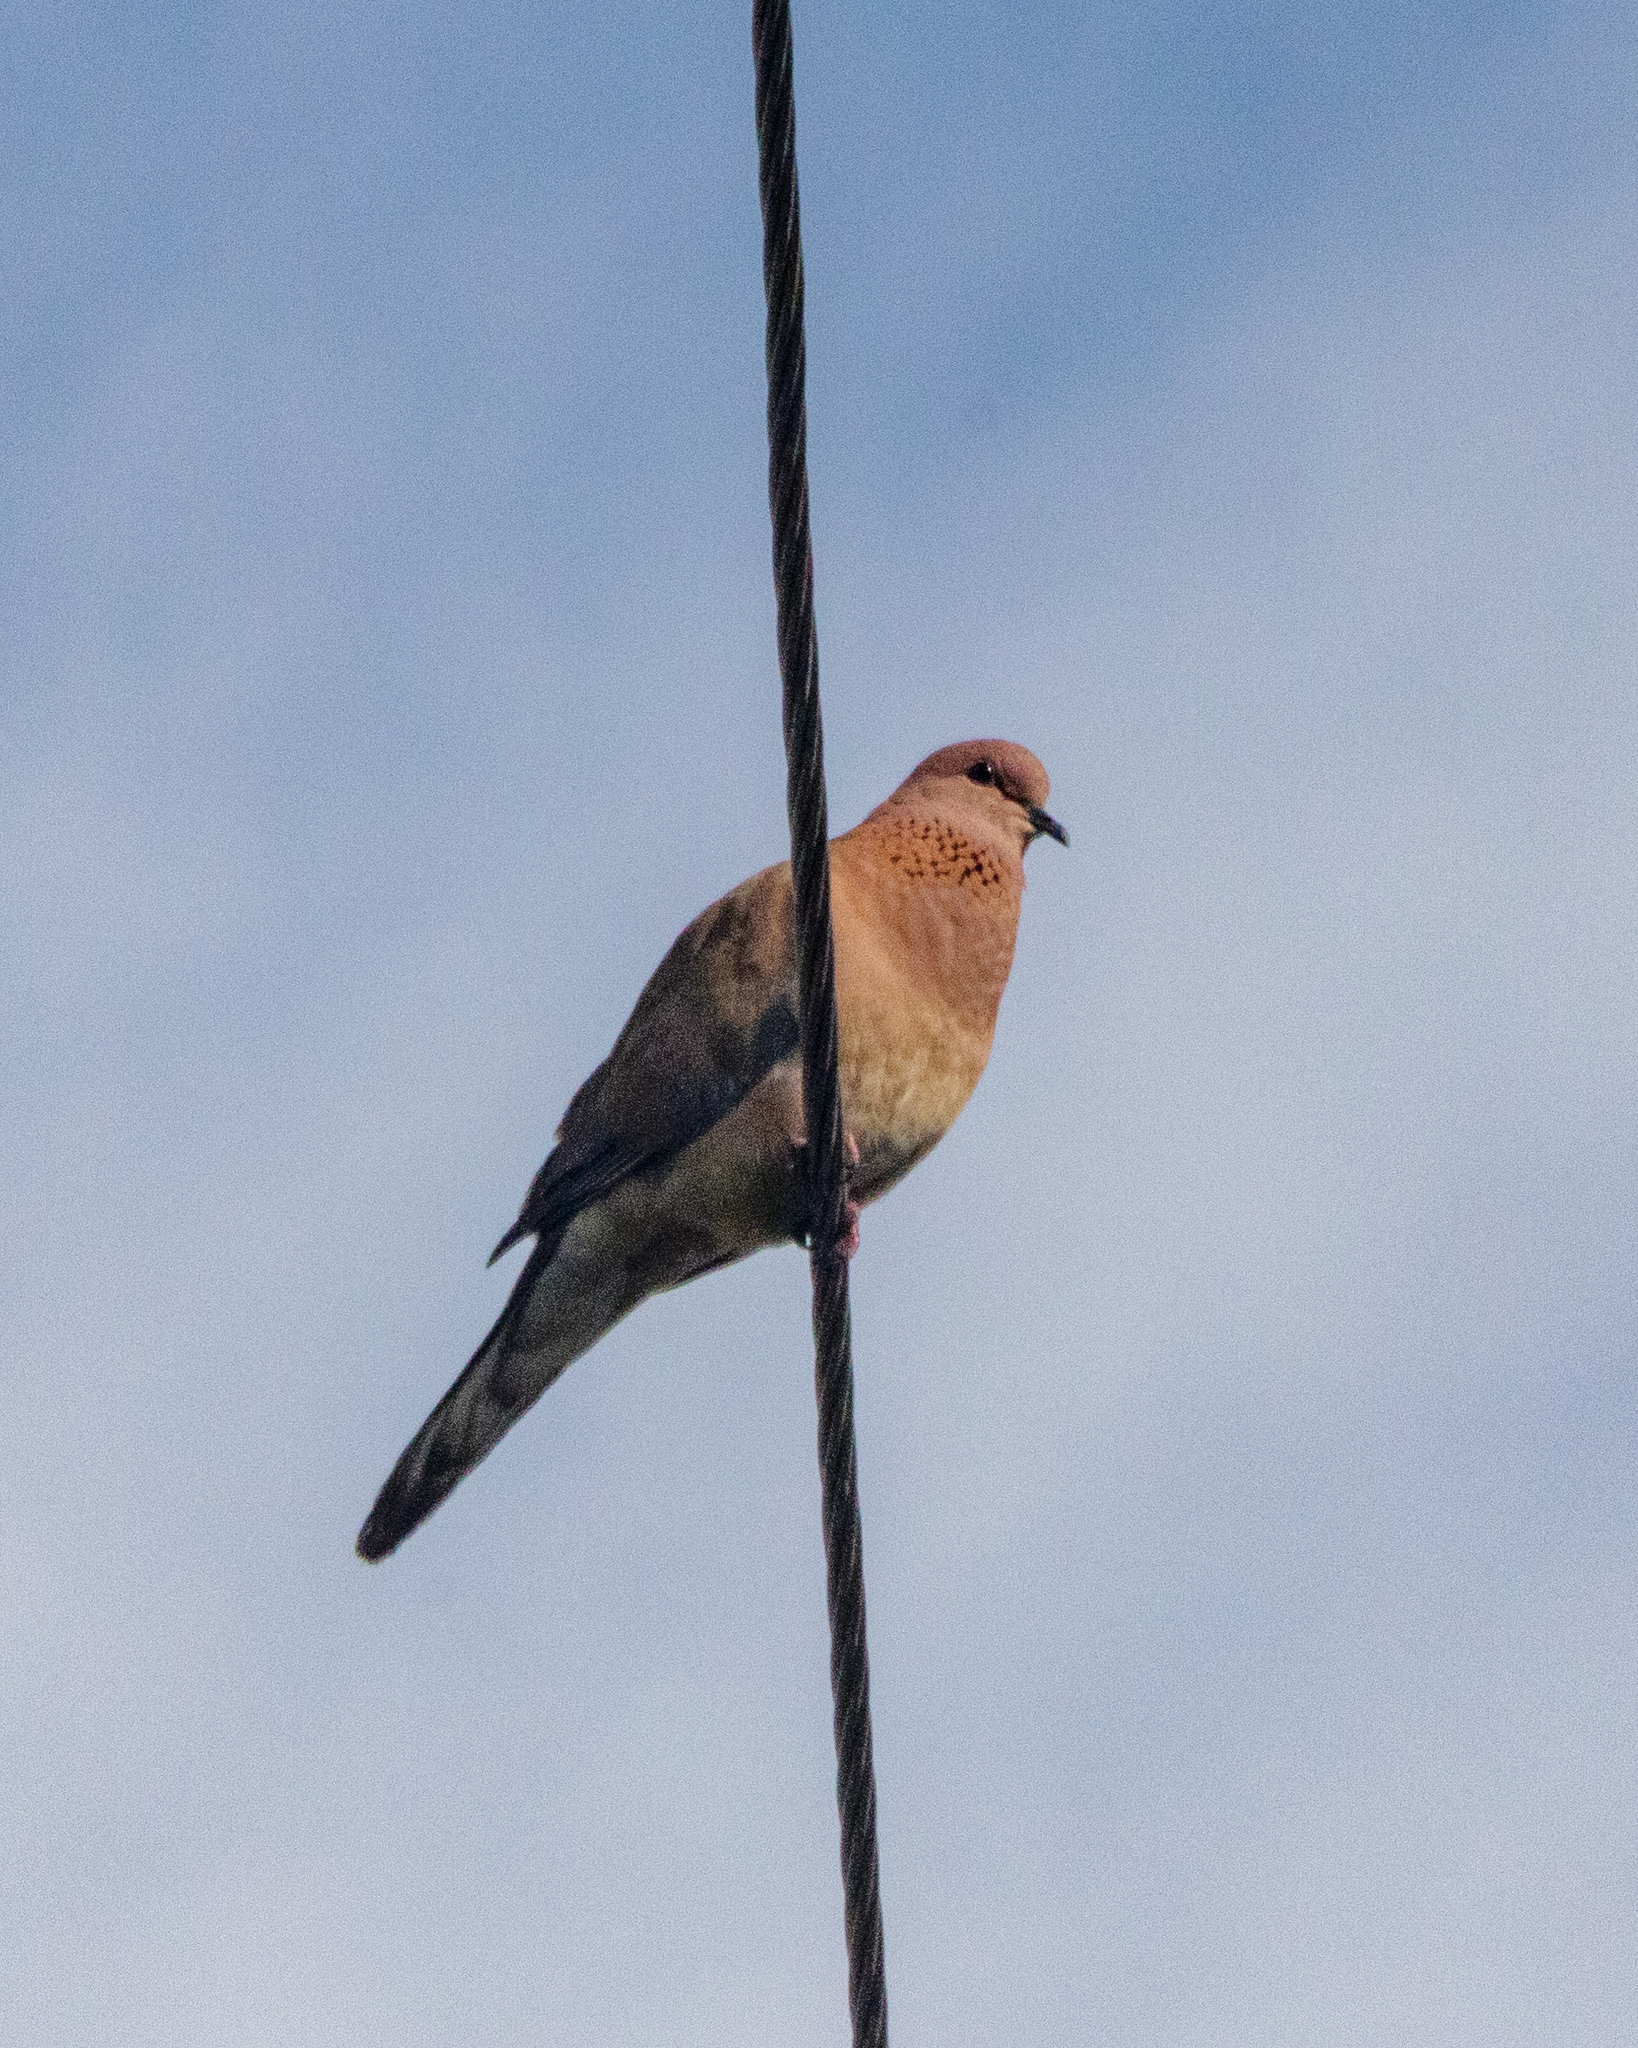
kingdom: Animalia
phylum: Chordata
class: Aves
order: Columbiformes
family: Columbidae
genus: Spilopelia
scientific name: Spilopelia senegalensis
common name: Laughing dove
